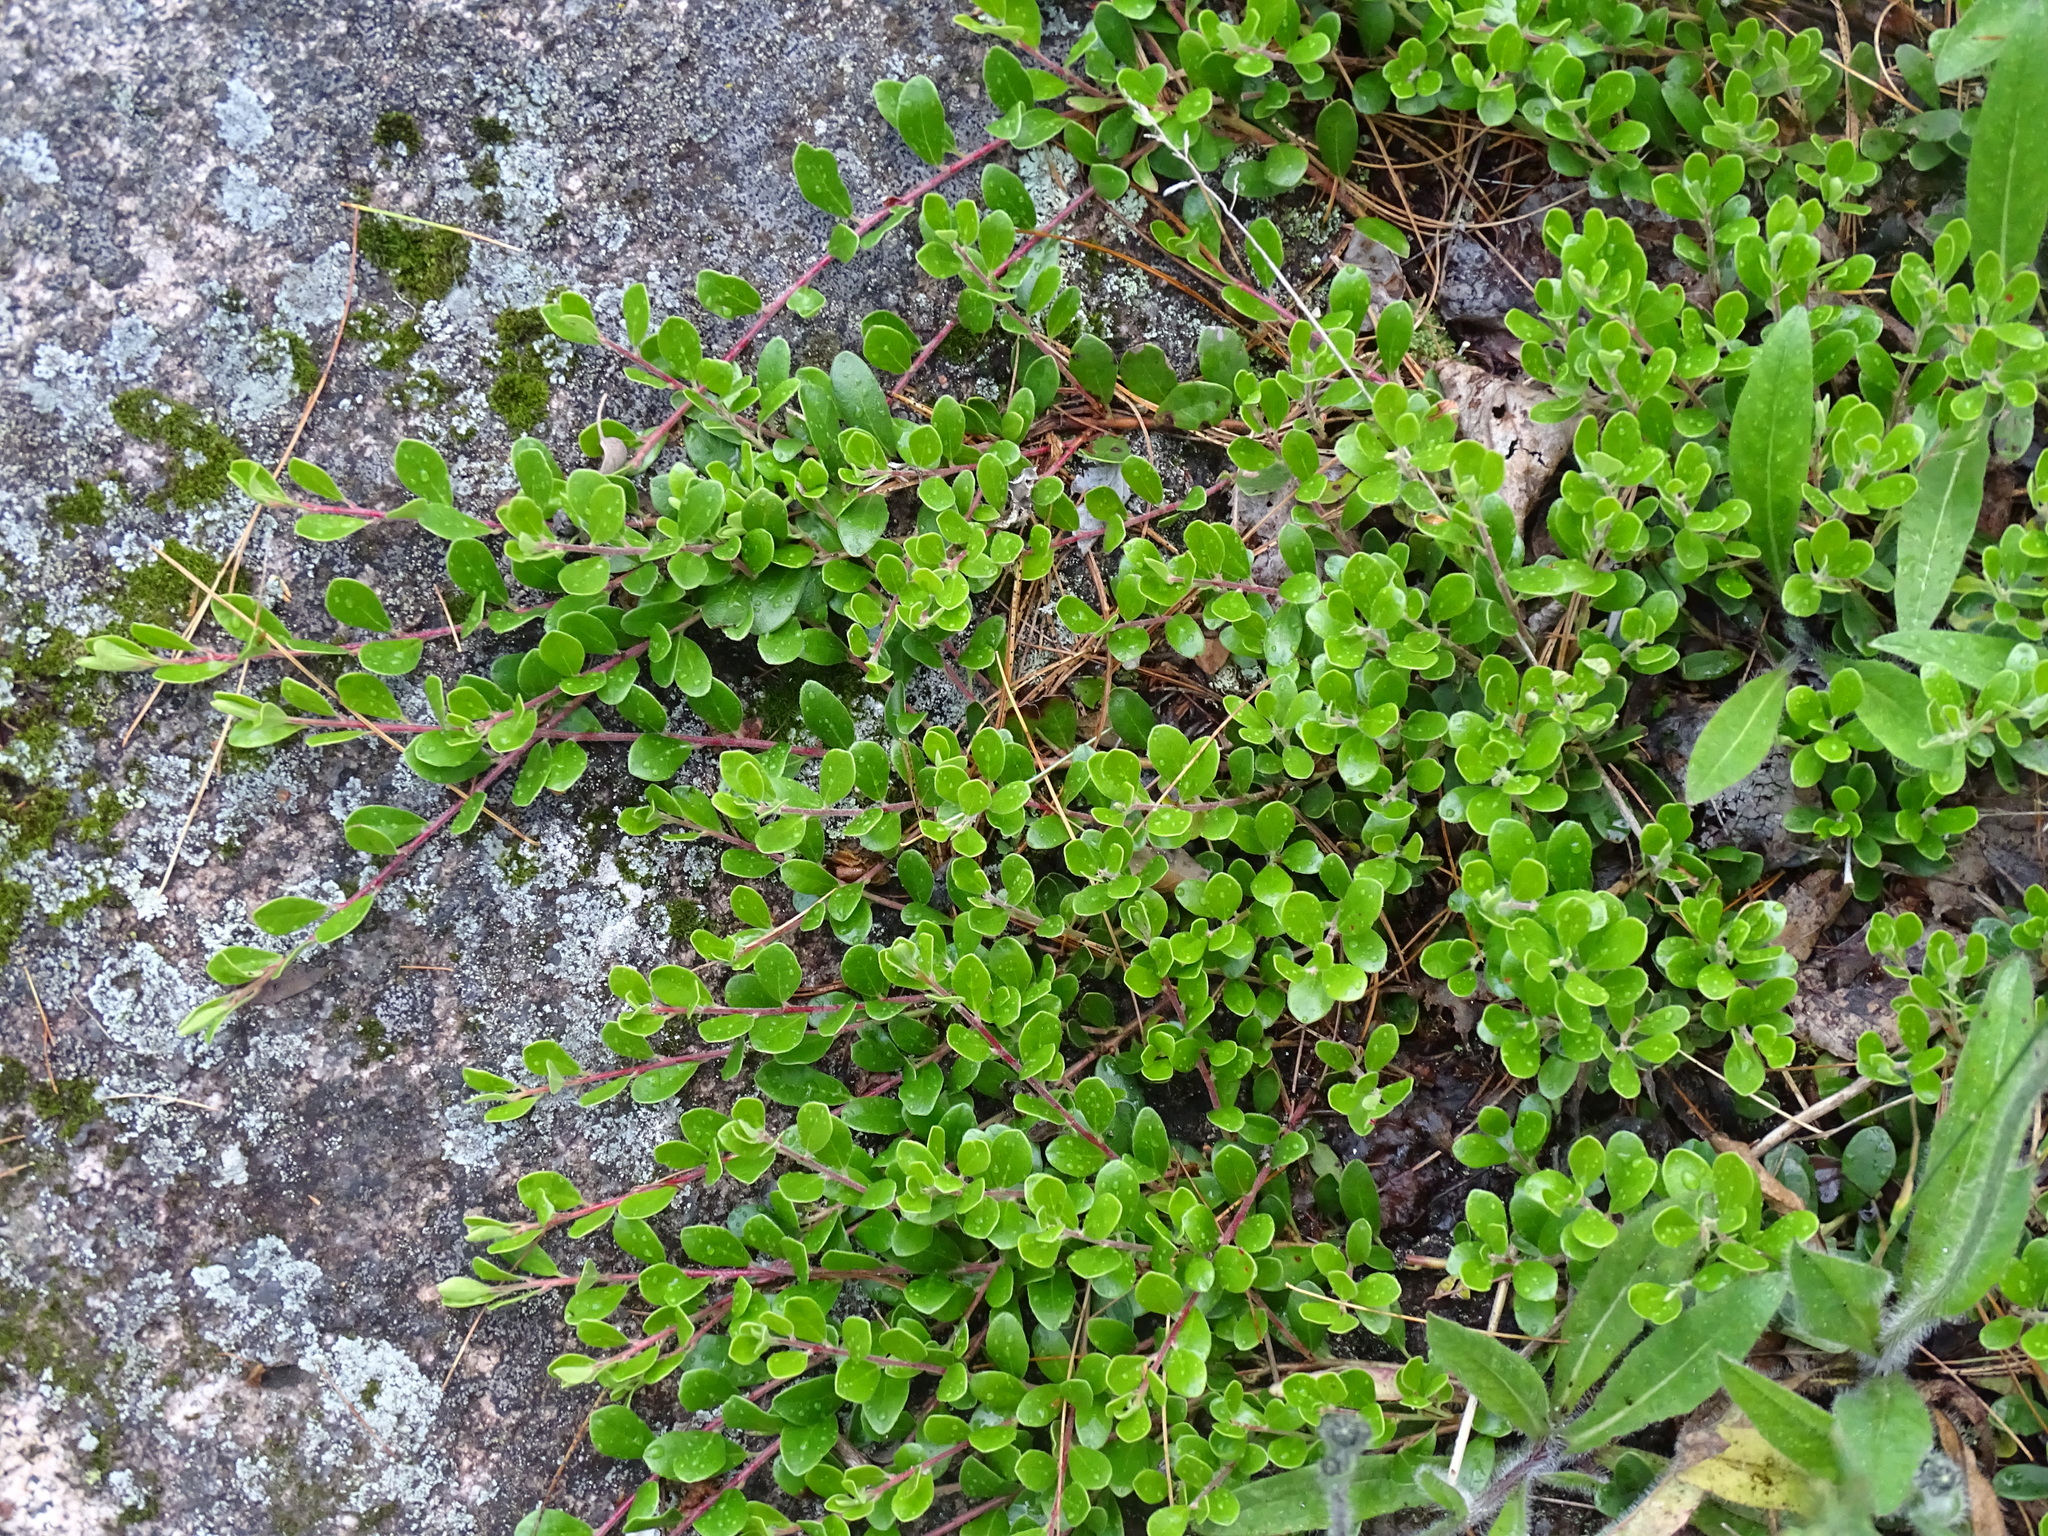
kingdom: Plantae
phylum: Tracheophyta
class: Magnoliopsida
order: Ericales
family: Ericaceae
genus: Arctostaphylos
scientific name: Arctostaphylos uva-ursi
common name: Bearberry
